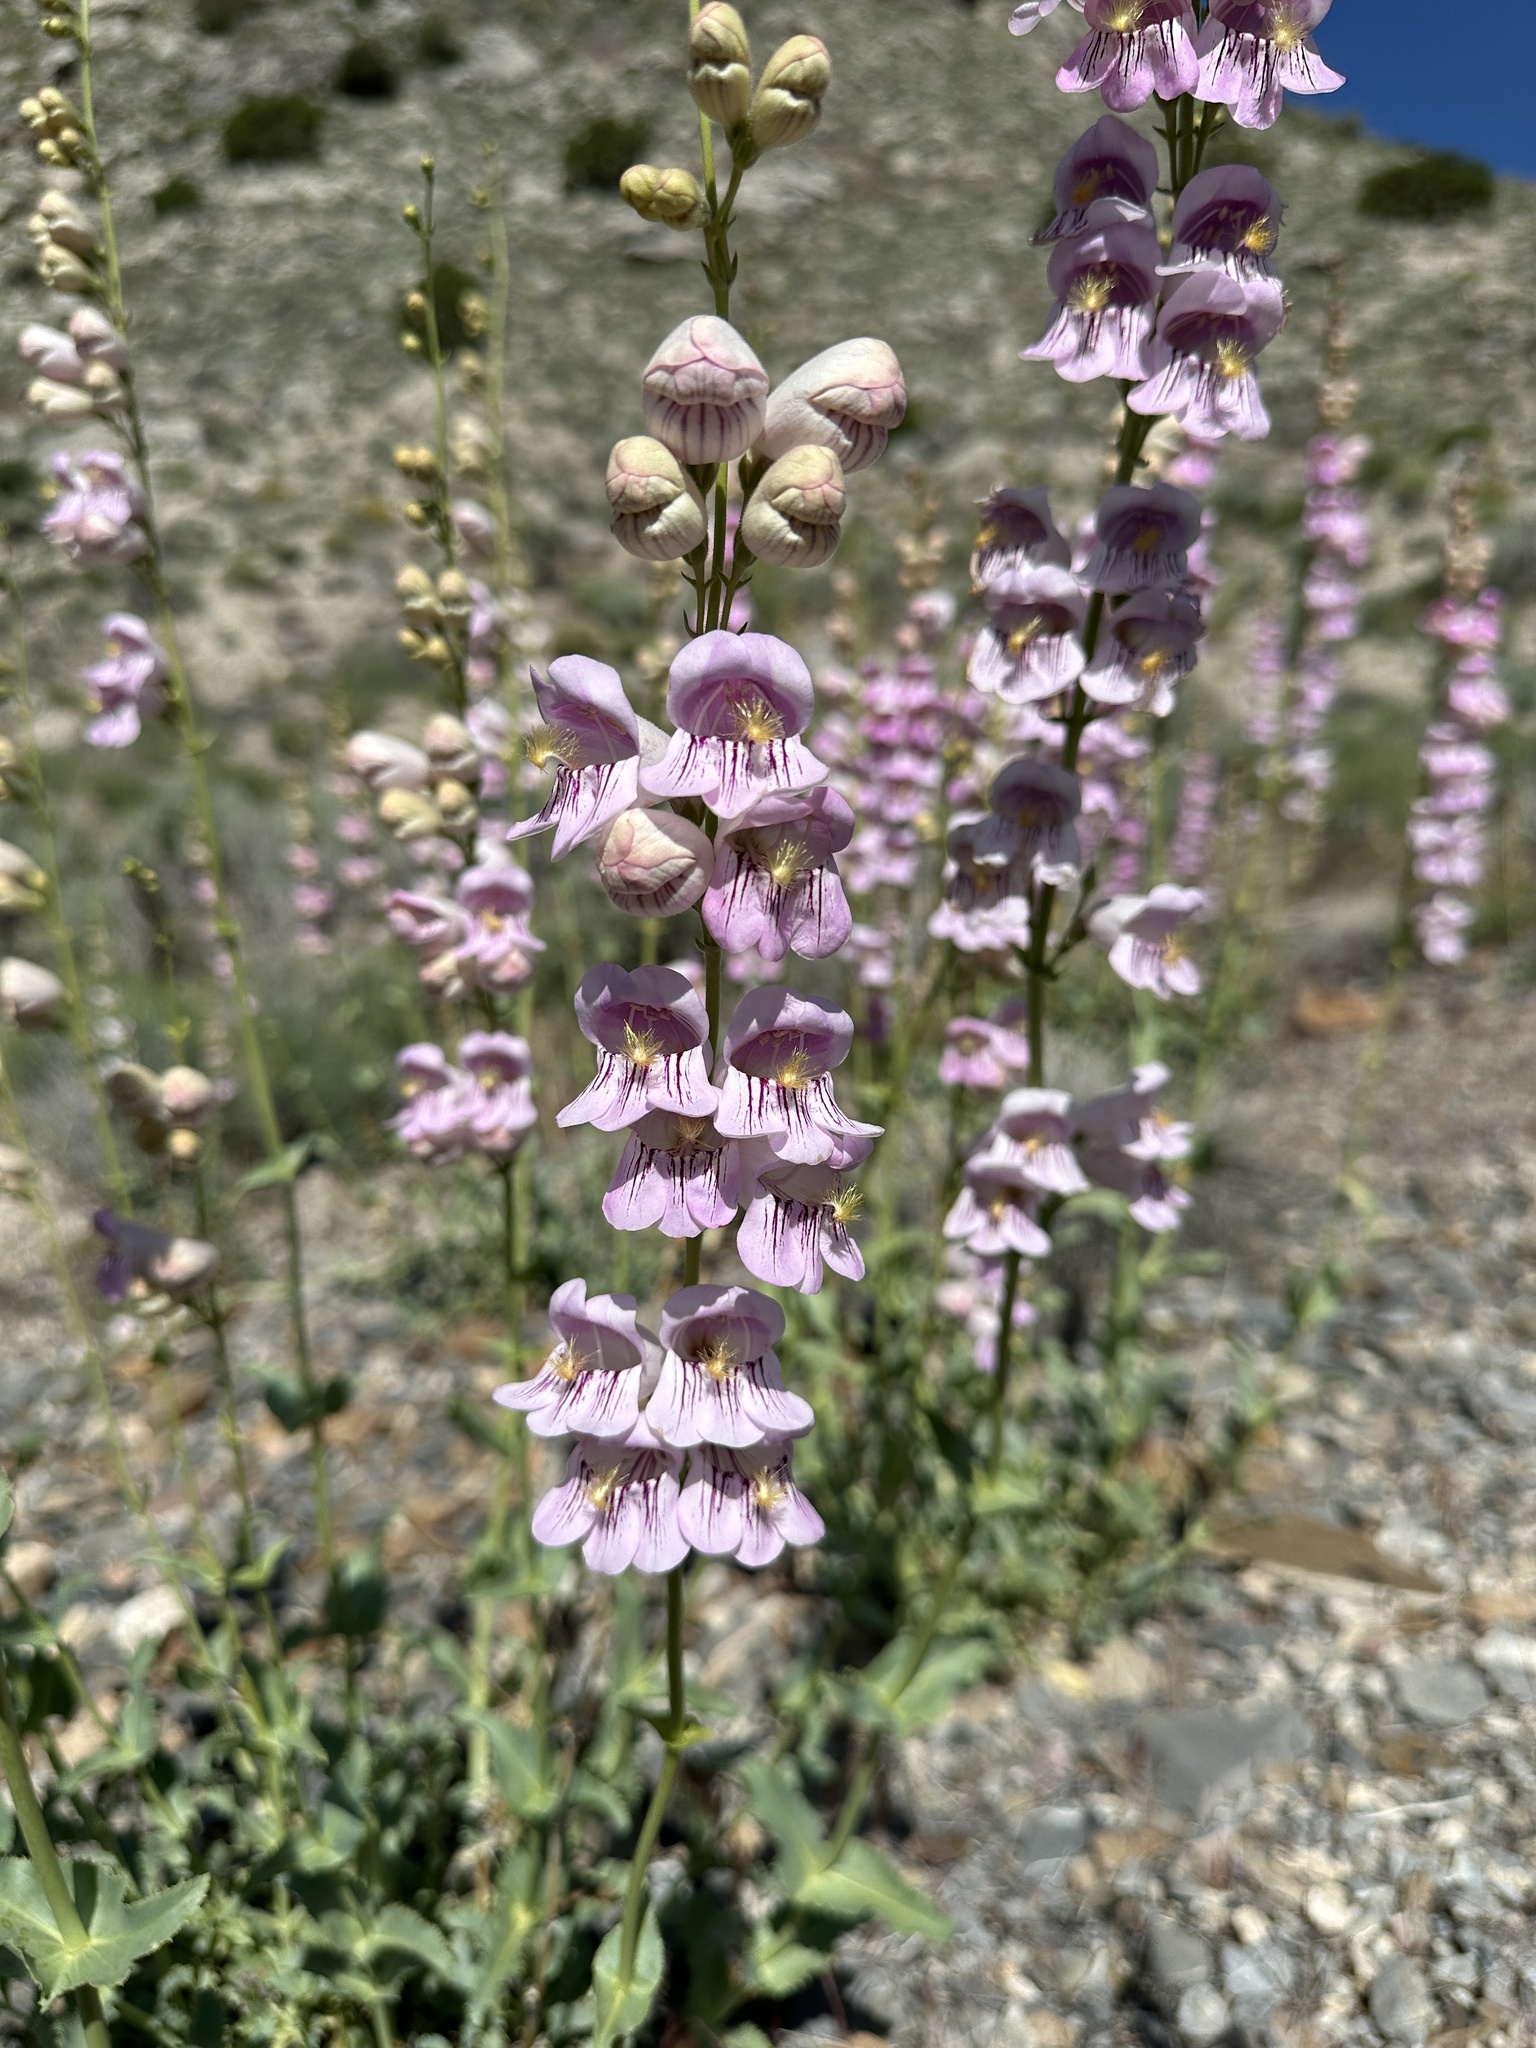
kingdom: Plantae
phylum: Tracheophyta
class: Magnoliopsida
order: Lamiales
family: Plantaginaceae
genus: Penstemon
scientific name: Penstemon palmeri
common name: Palmer penstemon
